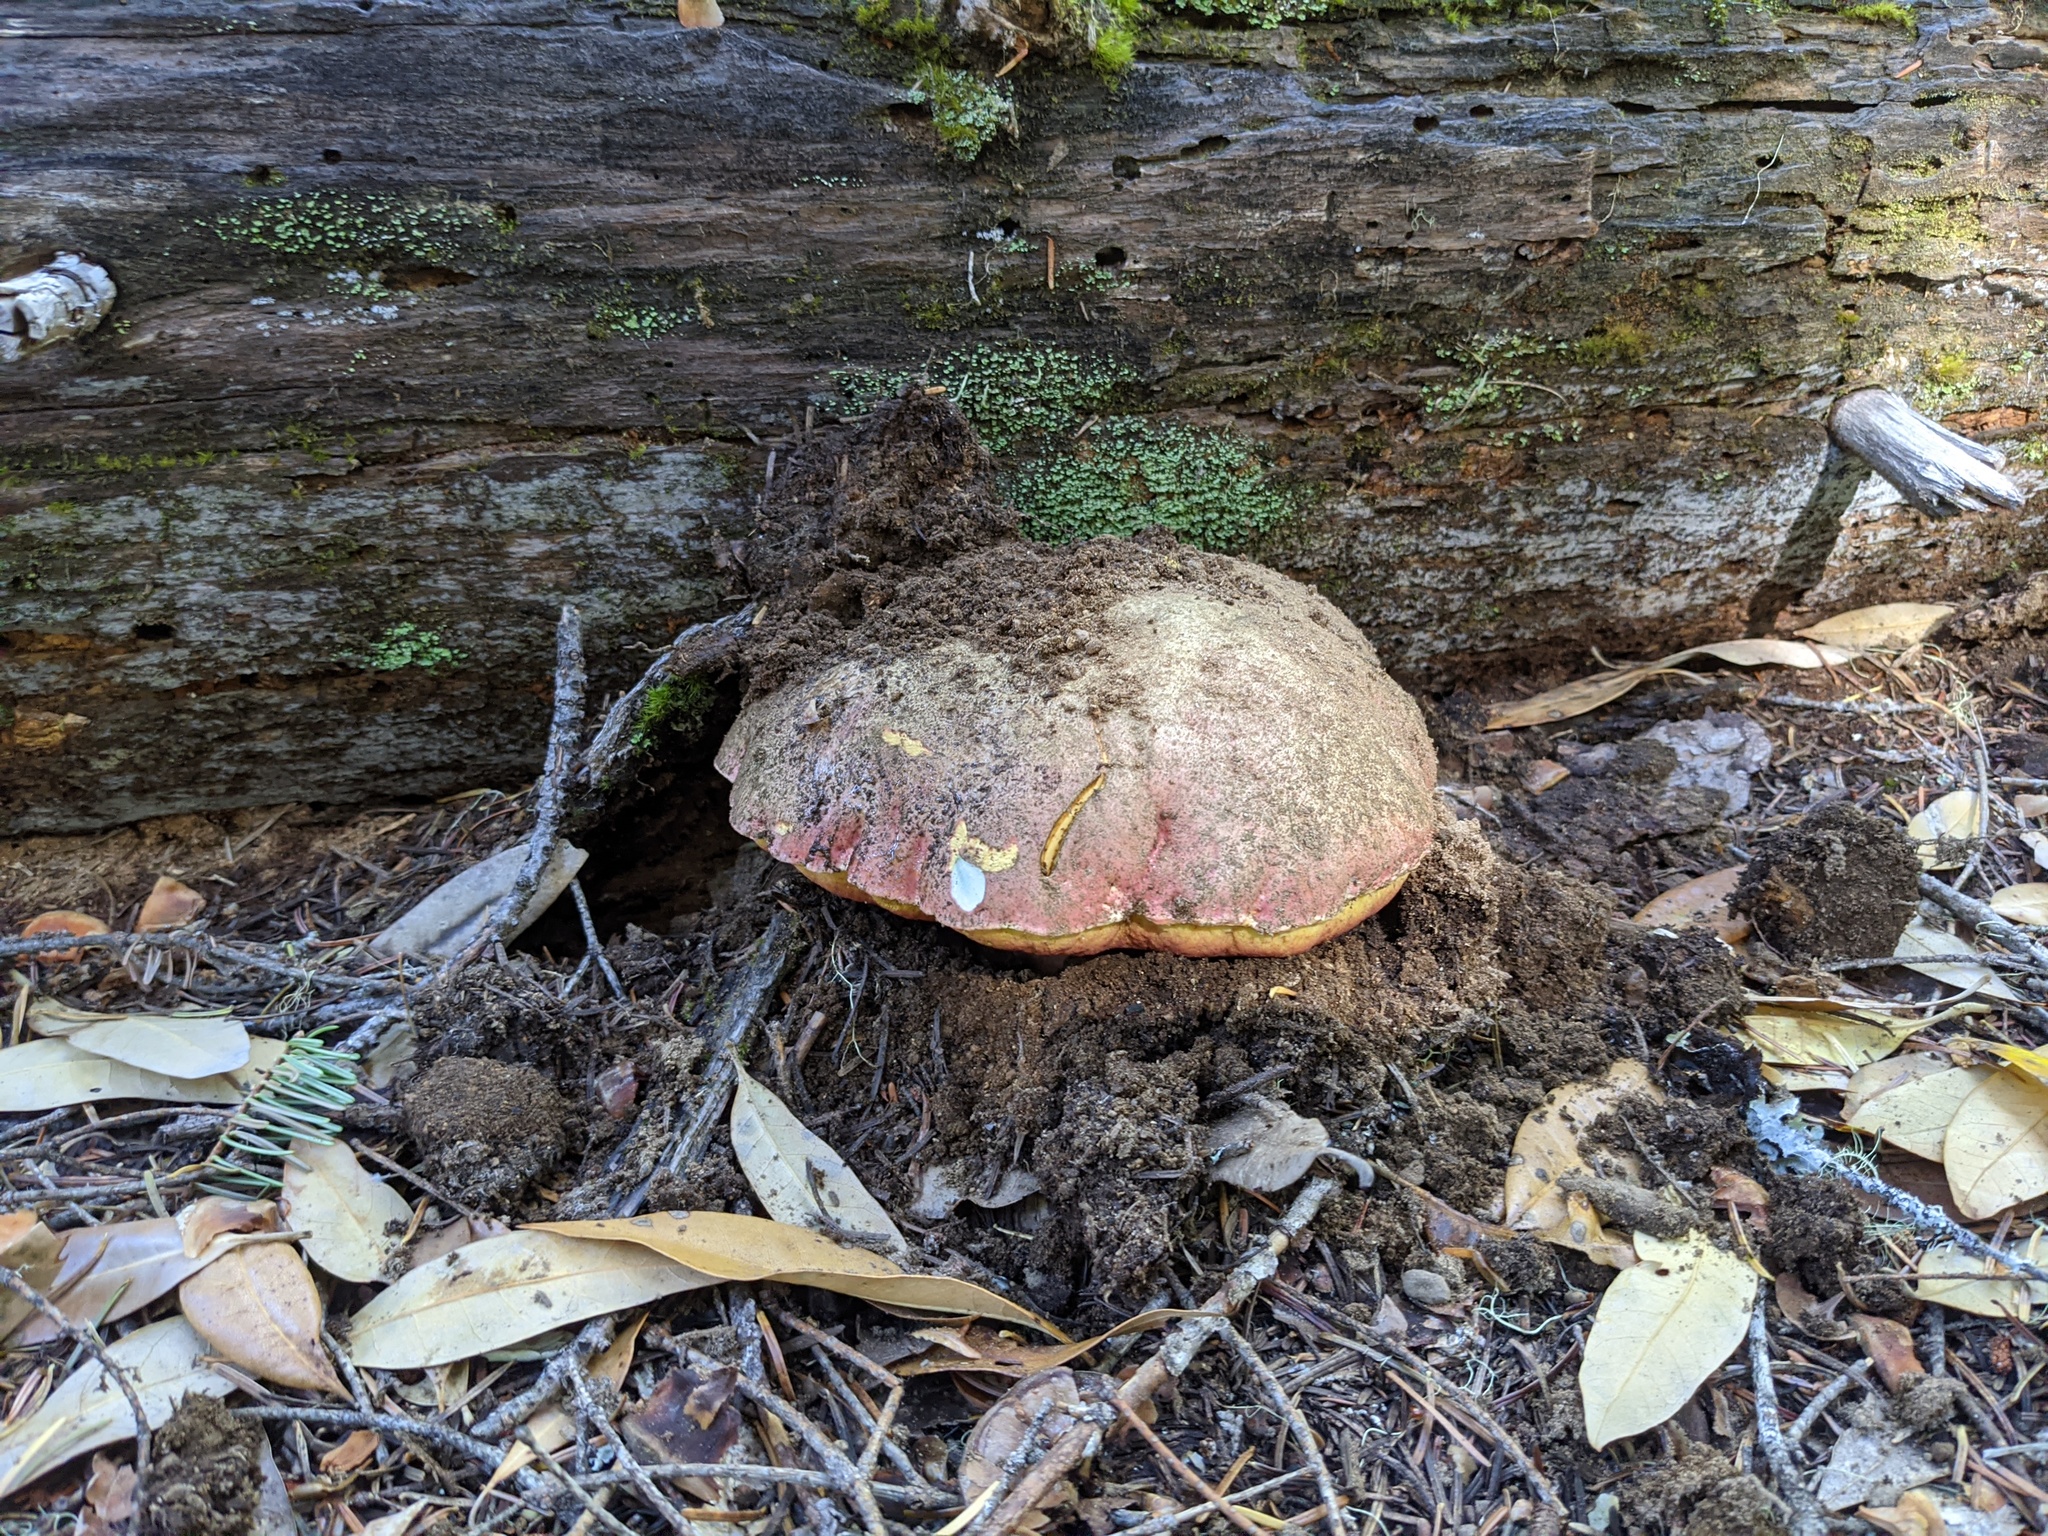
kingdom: Fungi
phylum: Basidiomycota
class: Agaricomycetes
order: Boletales
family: Boletaceae
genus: Butyriboletus
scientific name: Butyriboletus autumniregius
